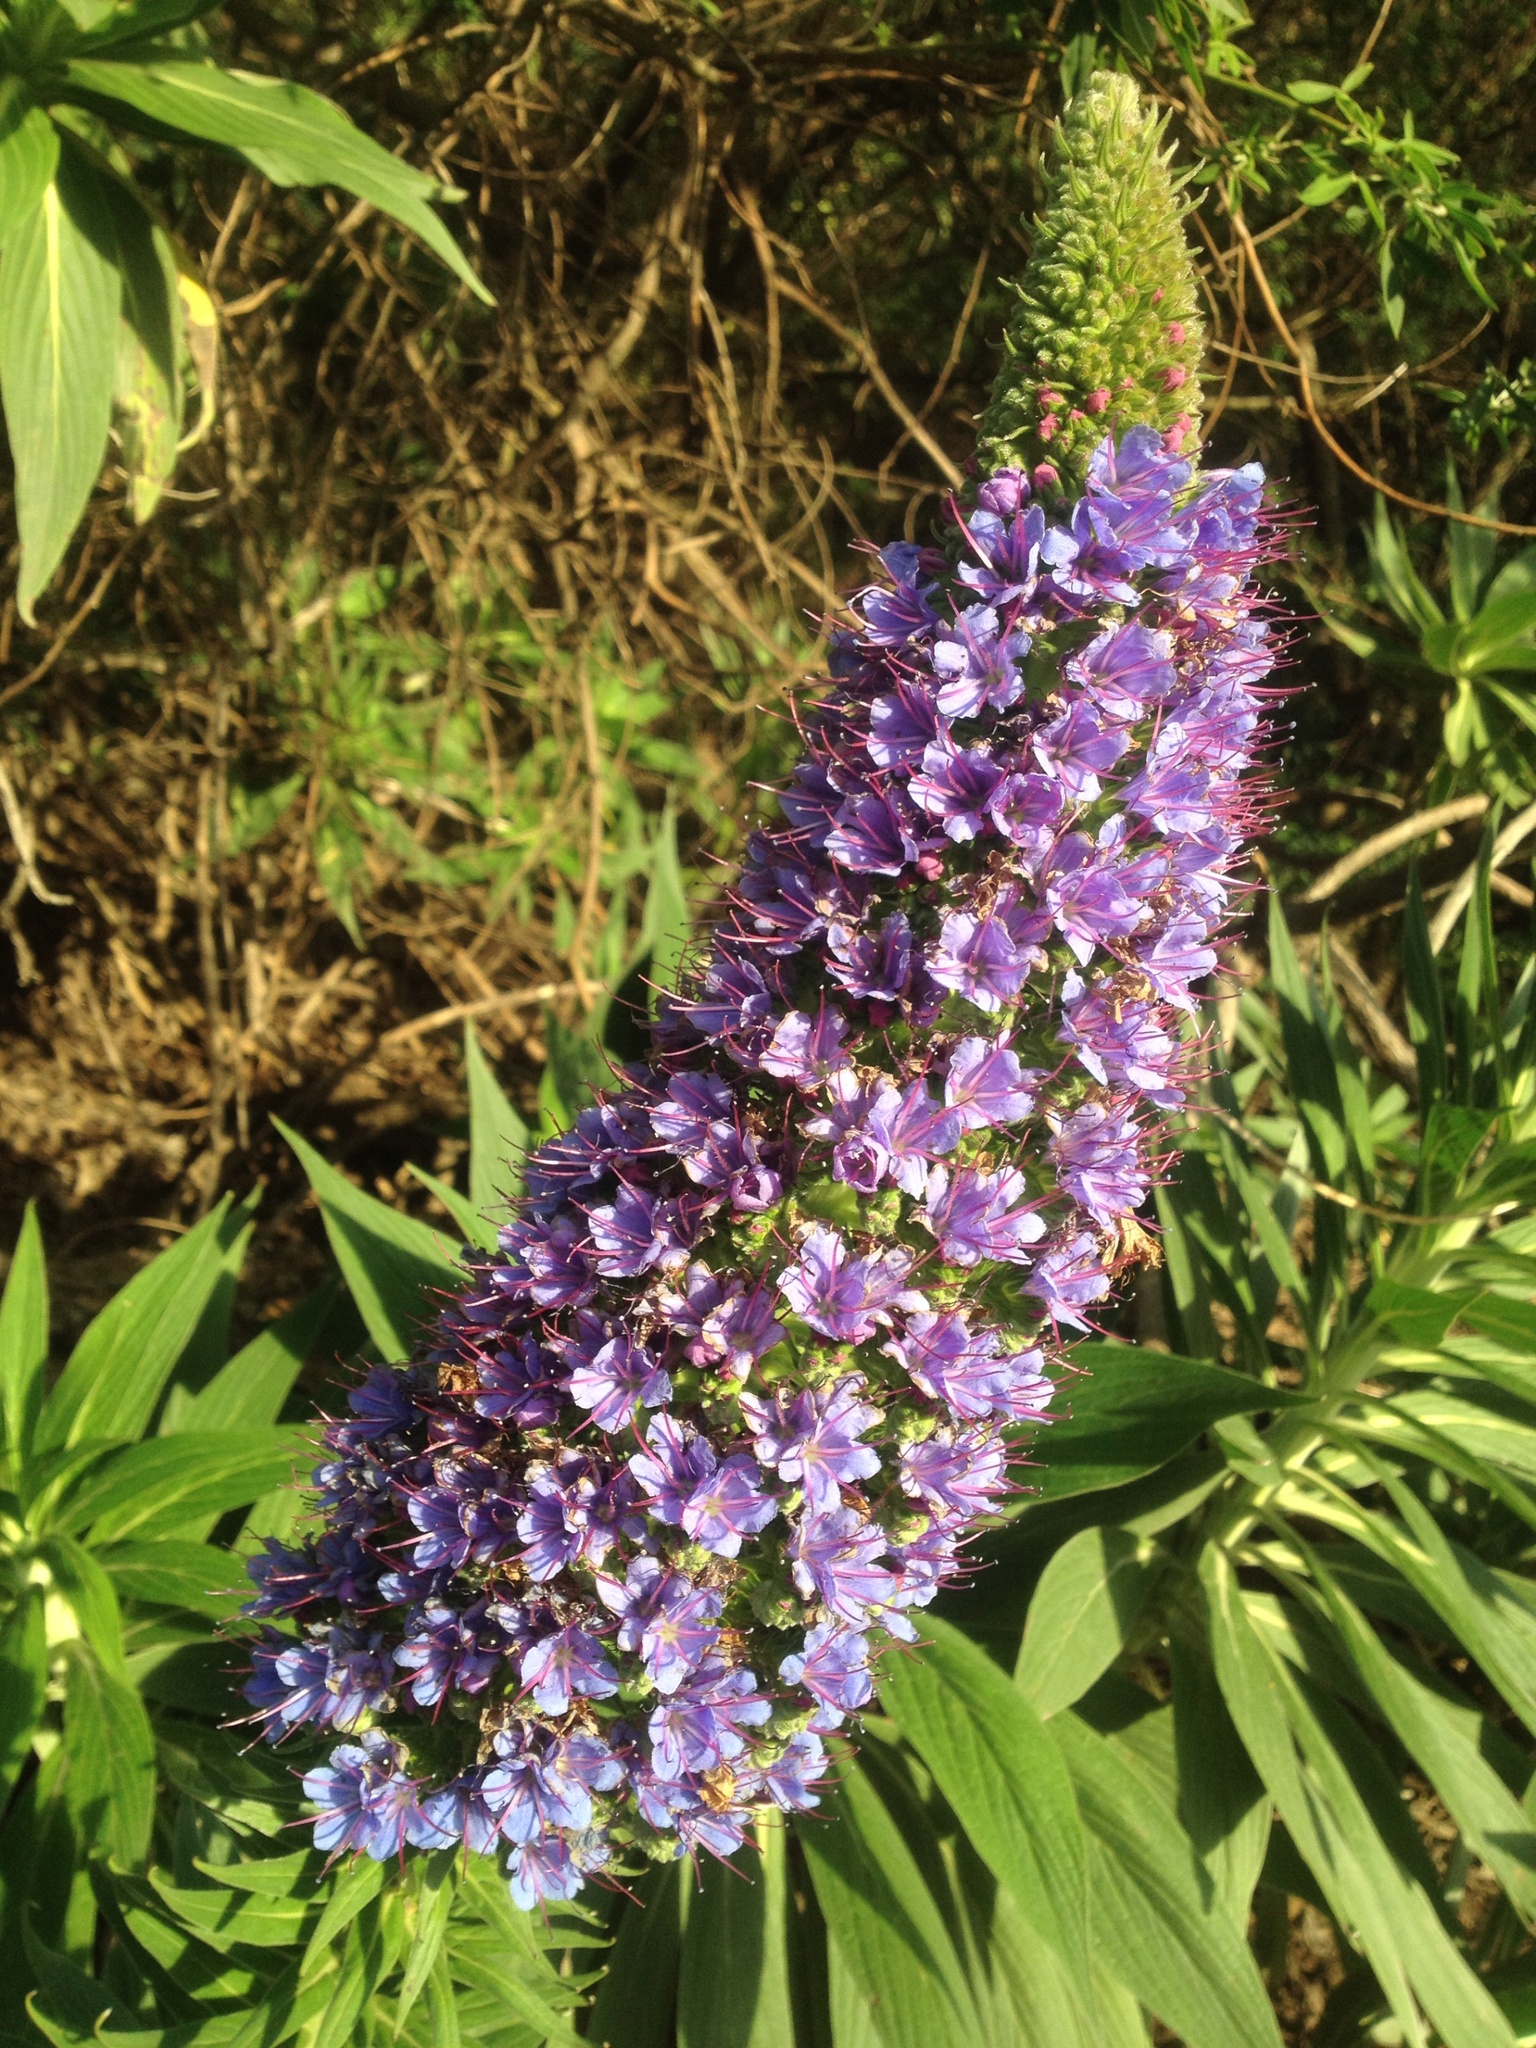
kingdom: Plantae
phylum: Tracheophyta
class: Magnoliopsida
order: Boraginales
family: Boraginaceae
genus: Echium
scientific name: Echium candicans
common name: Pride of madeira
